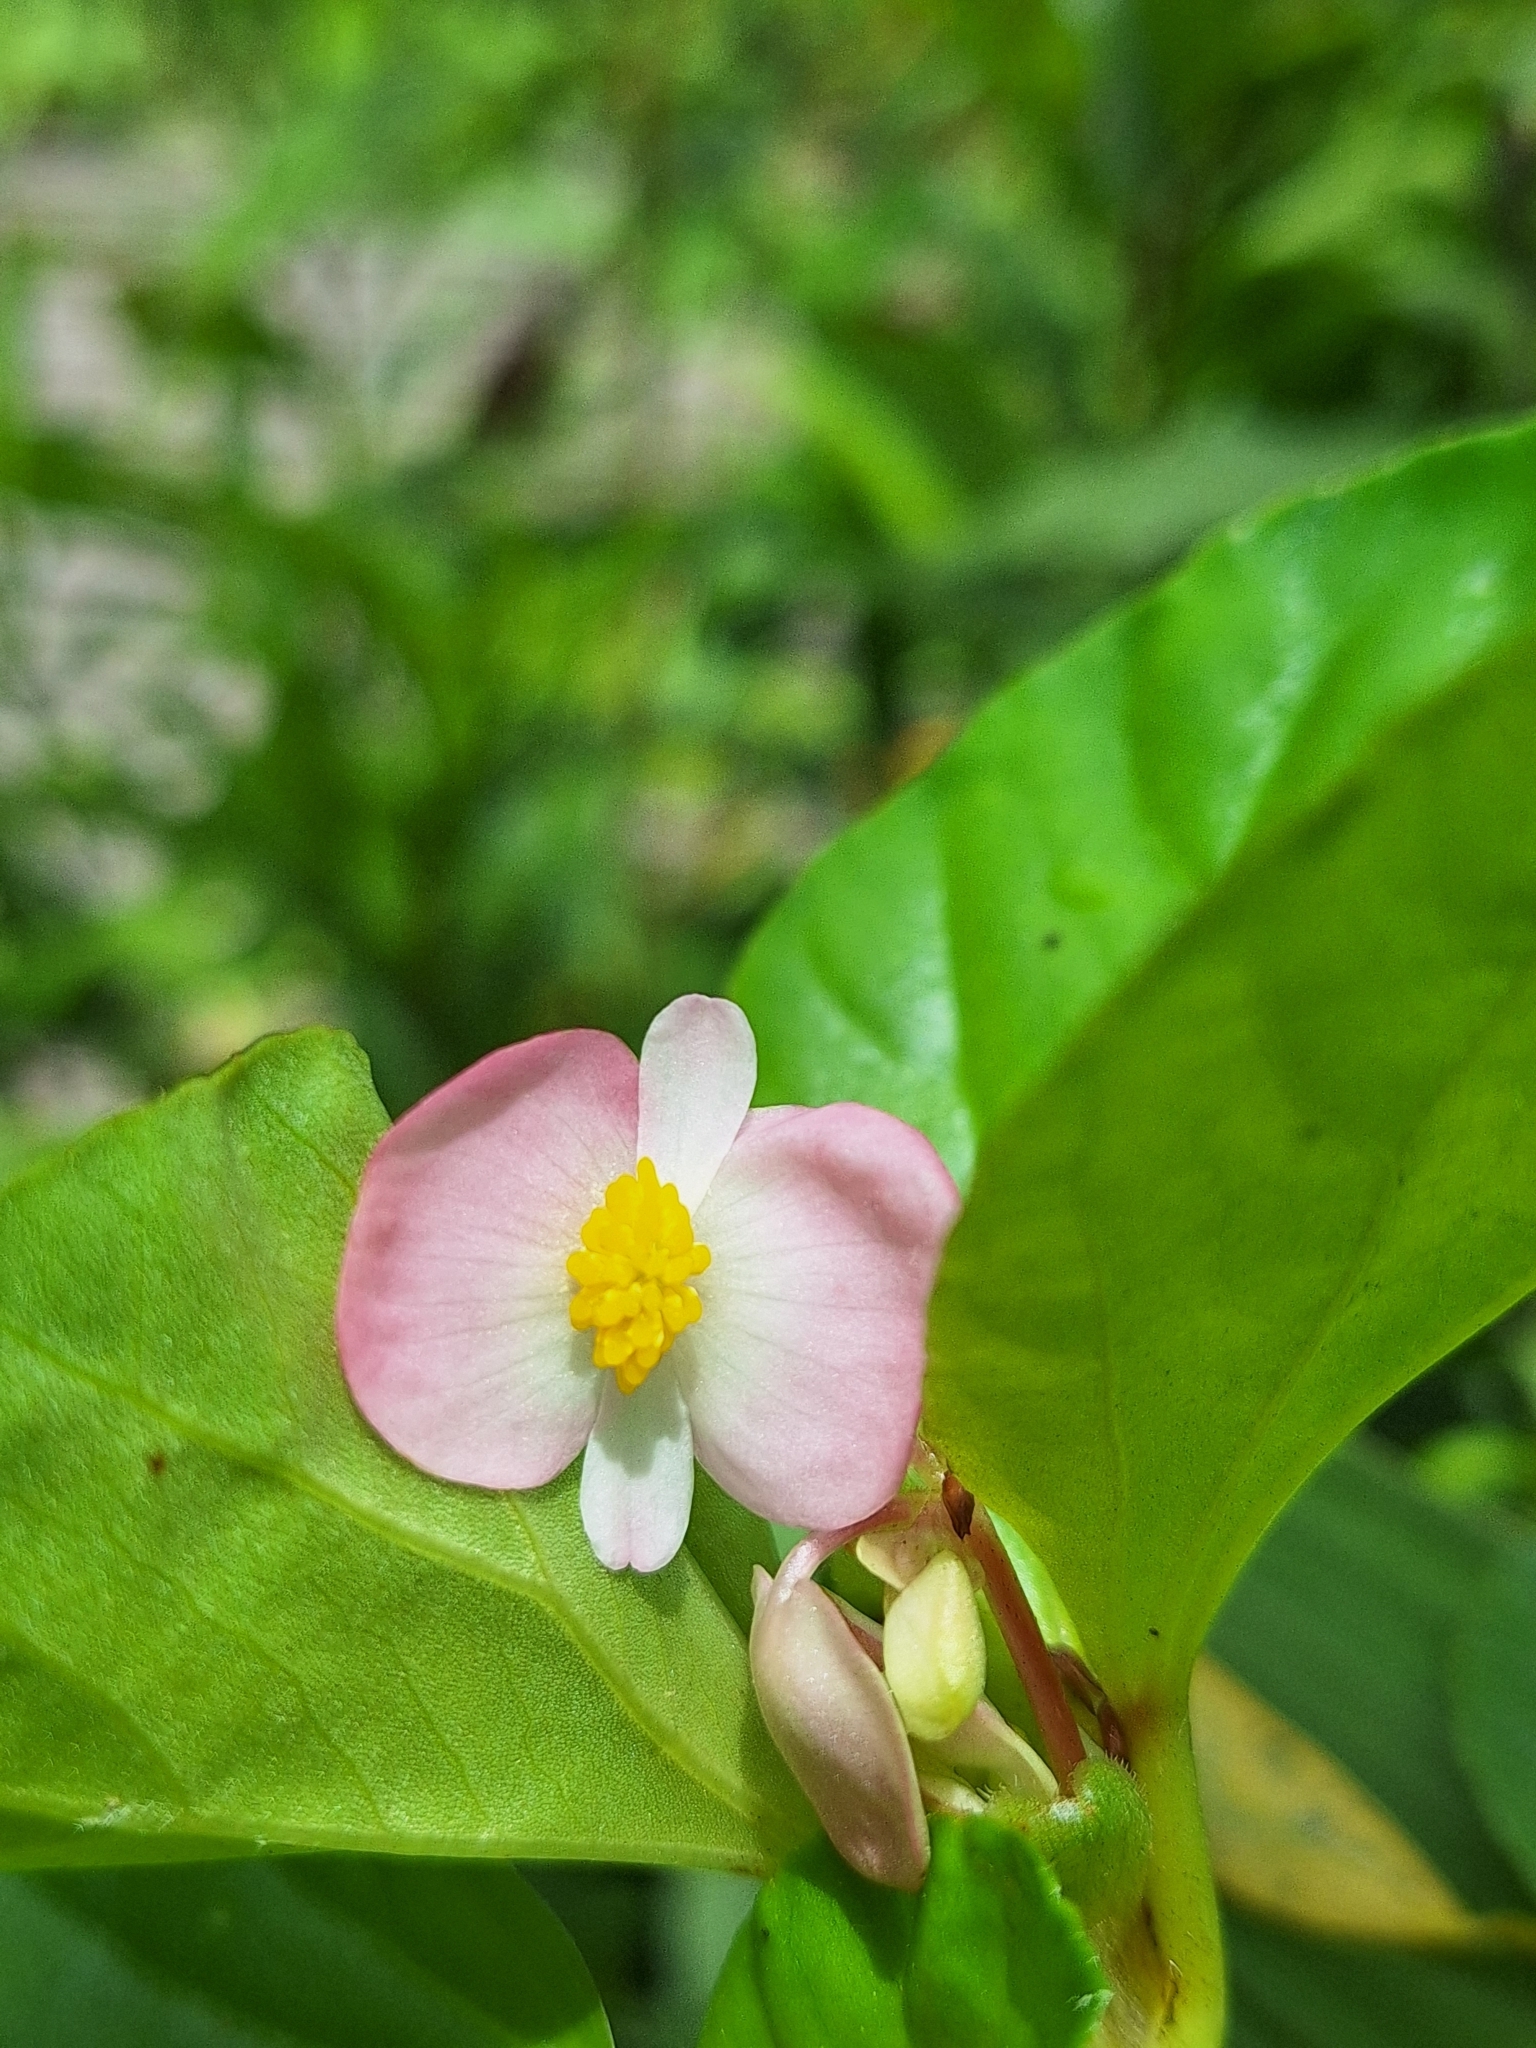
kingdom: Plantae
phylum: Tracheophyta
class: Magnoliopsida
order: Cucurbitales
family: Begoniaceae
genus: Begonia
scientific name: Begonia cucullata
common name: Clubbed begonia
